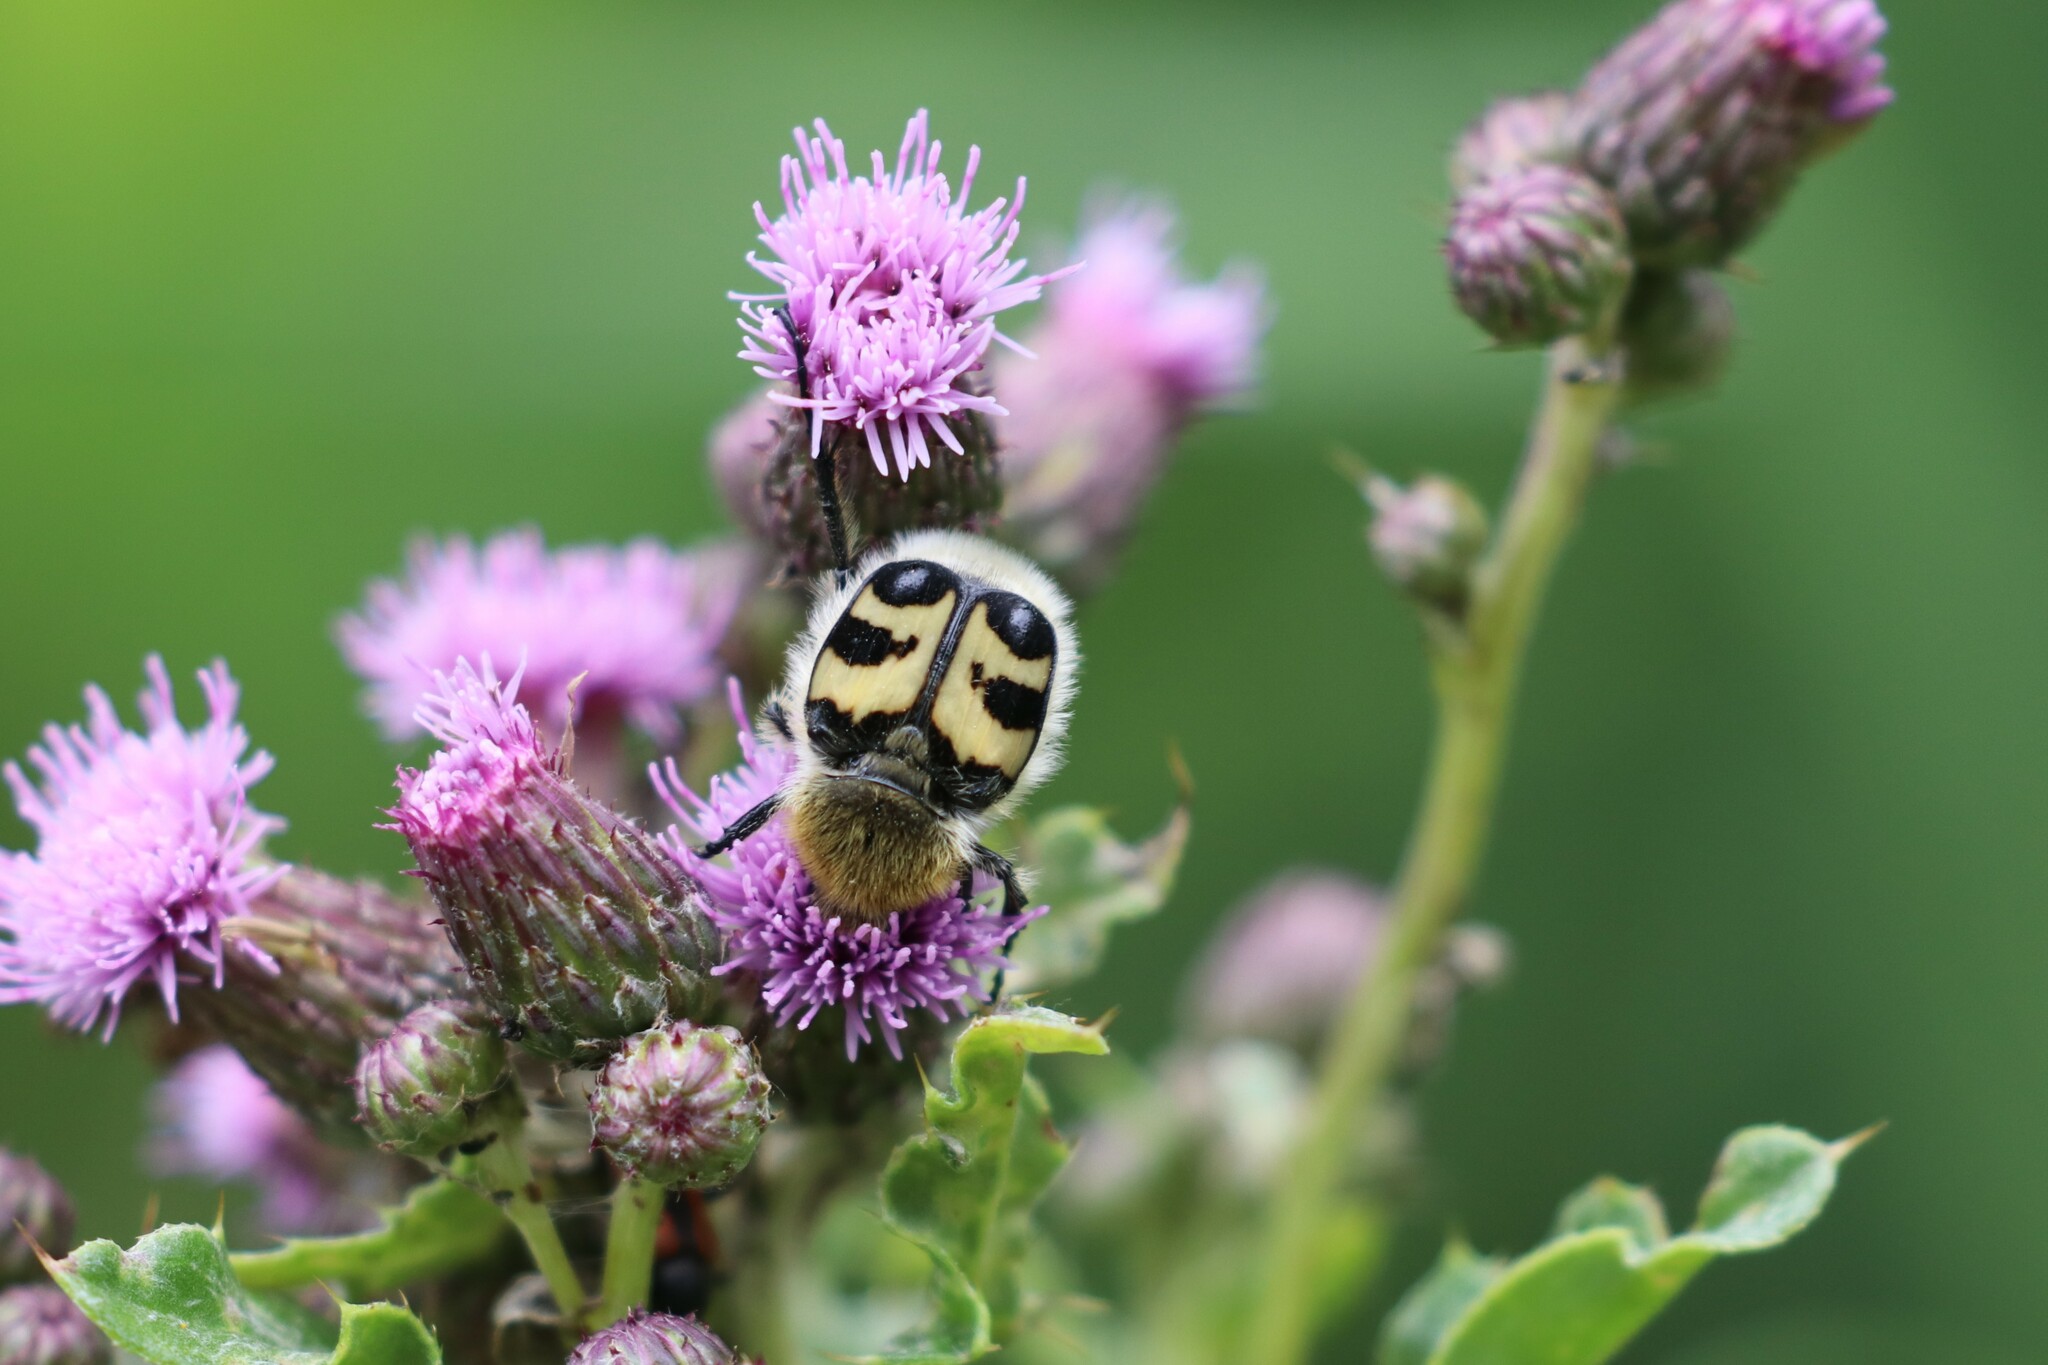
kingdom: Animalia
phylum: Arthropoda
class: Insecta
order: Coleoptera
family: Scarabaeidae
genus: Trichius
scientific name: Trichius fasciatus
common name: Bee beetle
